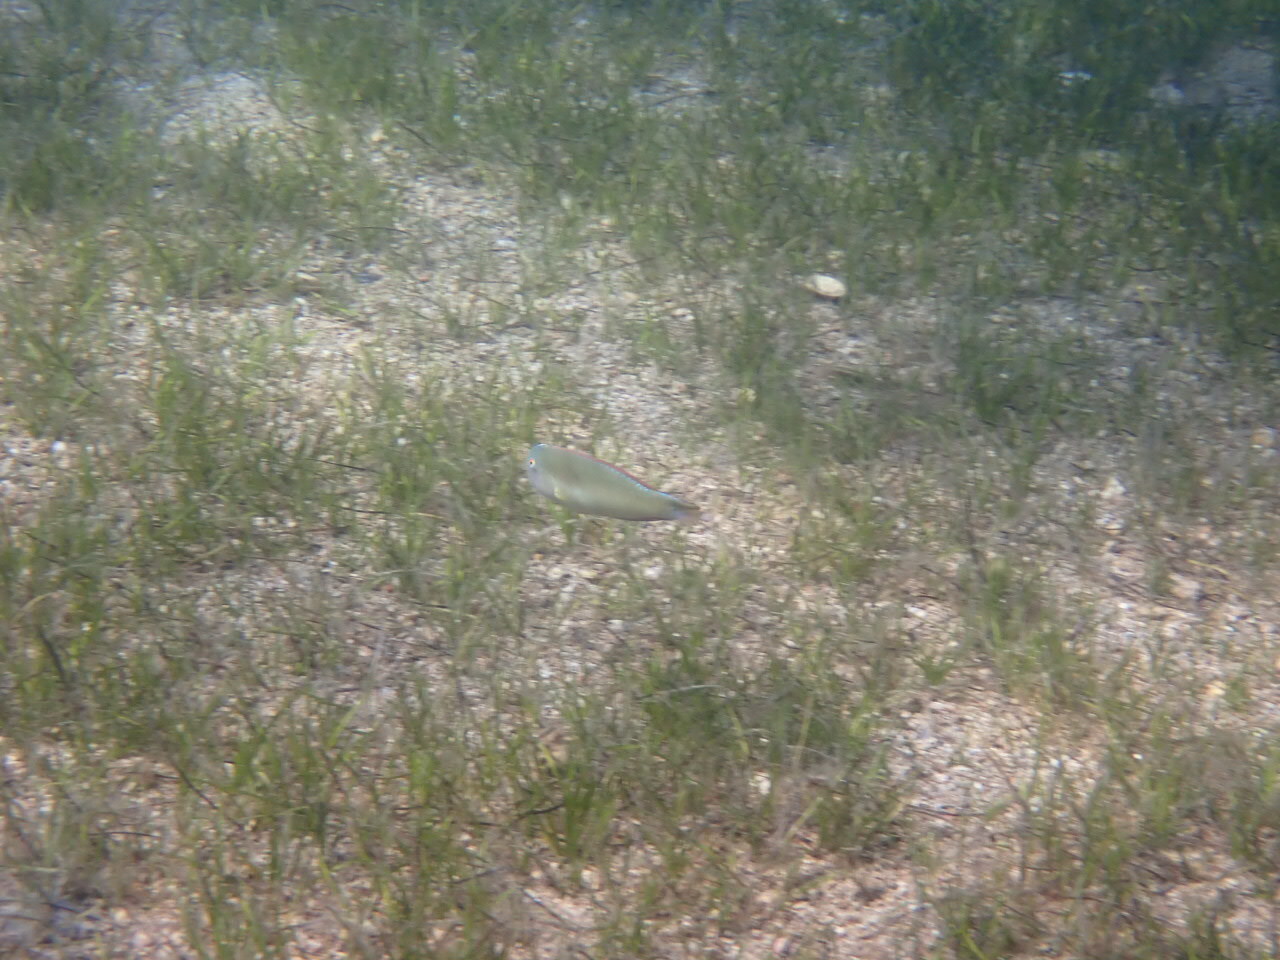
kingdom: Animalia
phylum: Chordata
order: Perciformes
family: Labridae
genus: Xyrichtys
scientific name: Xyrichtys novacula
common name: Pearly razorfish
